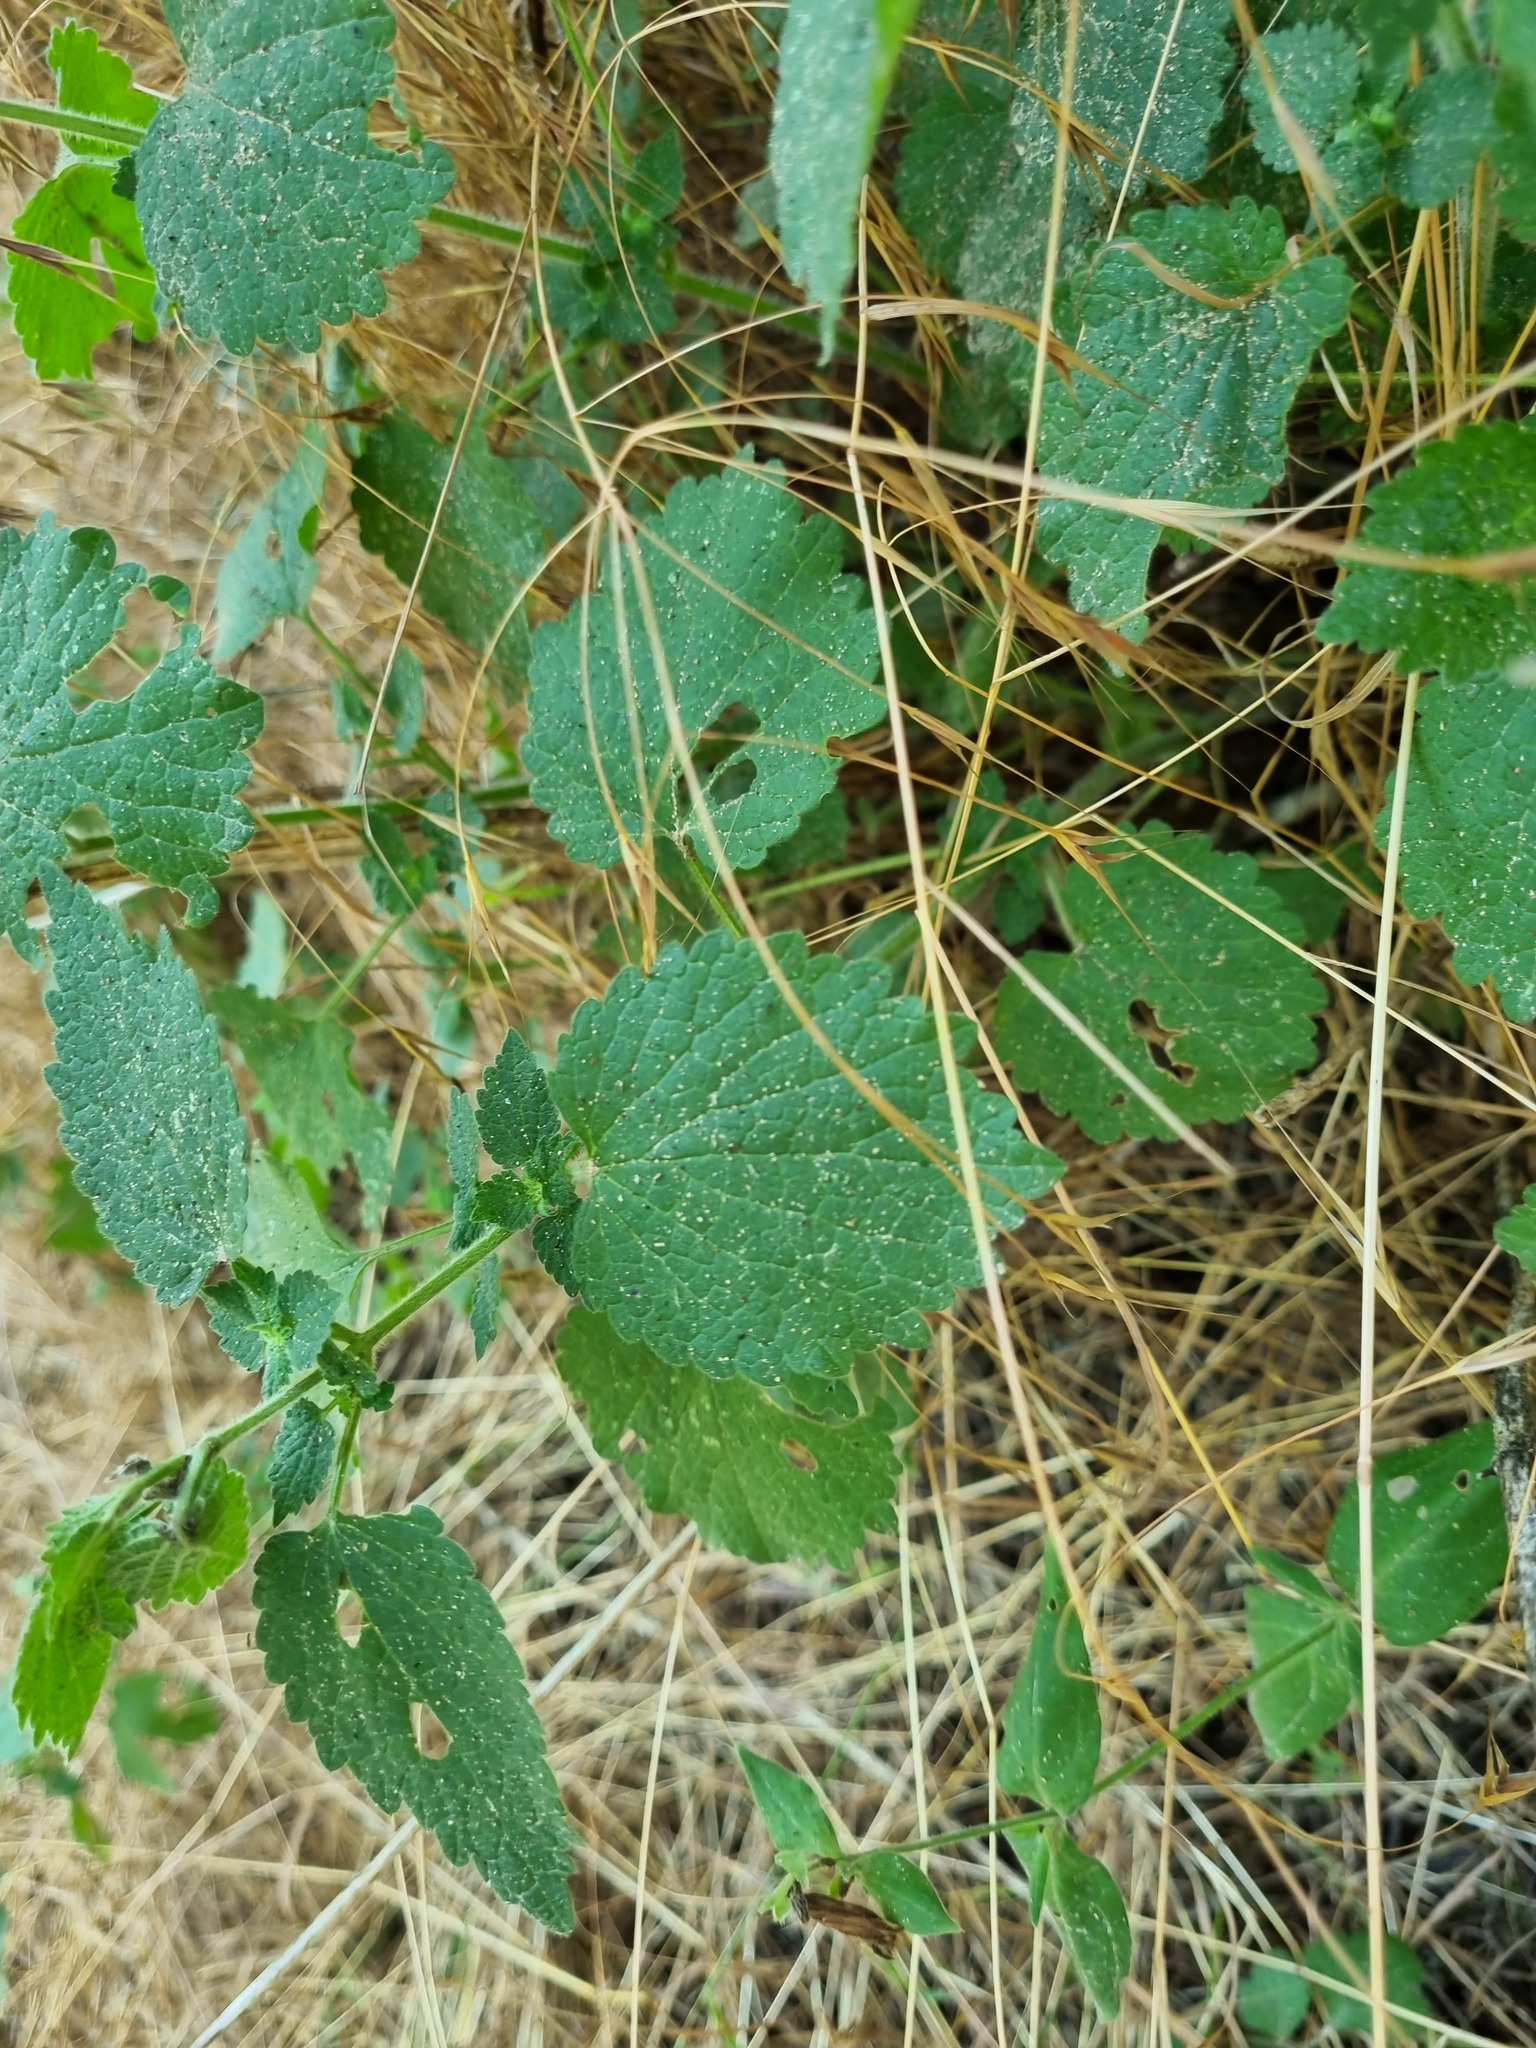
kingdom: Plantae
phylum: Tracheophyta
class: Magnoliopsida
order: Lamiales
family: Lamiaceae
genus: Ballota
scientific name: Ballota nigra
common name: Black horehound
